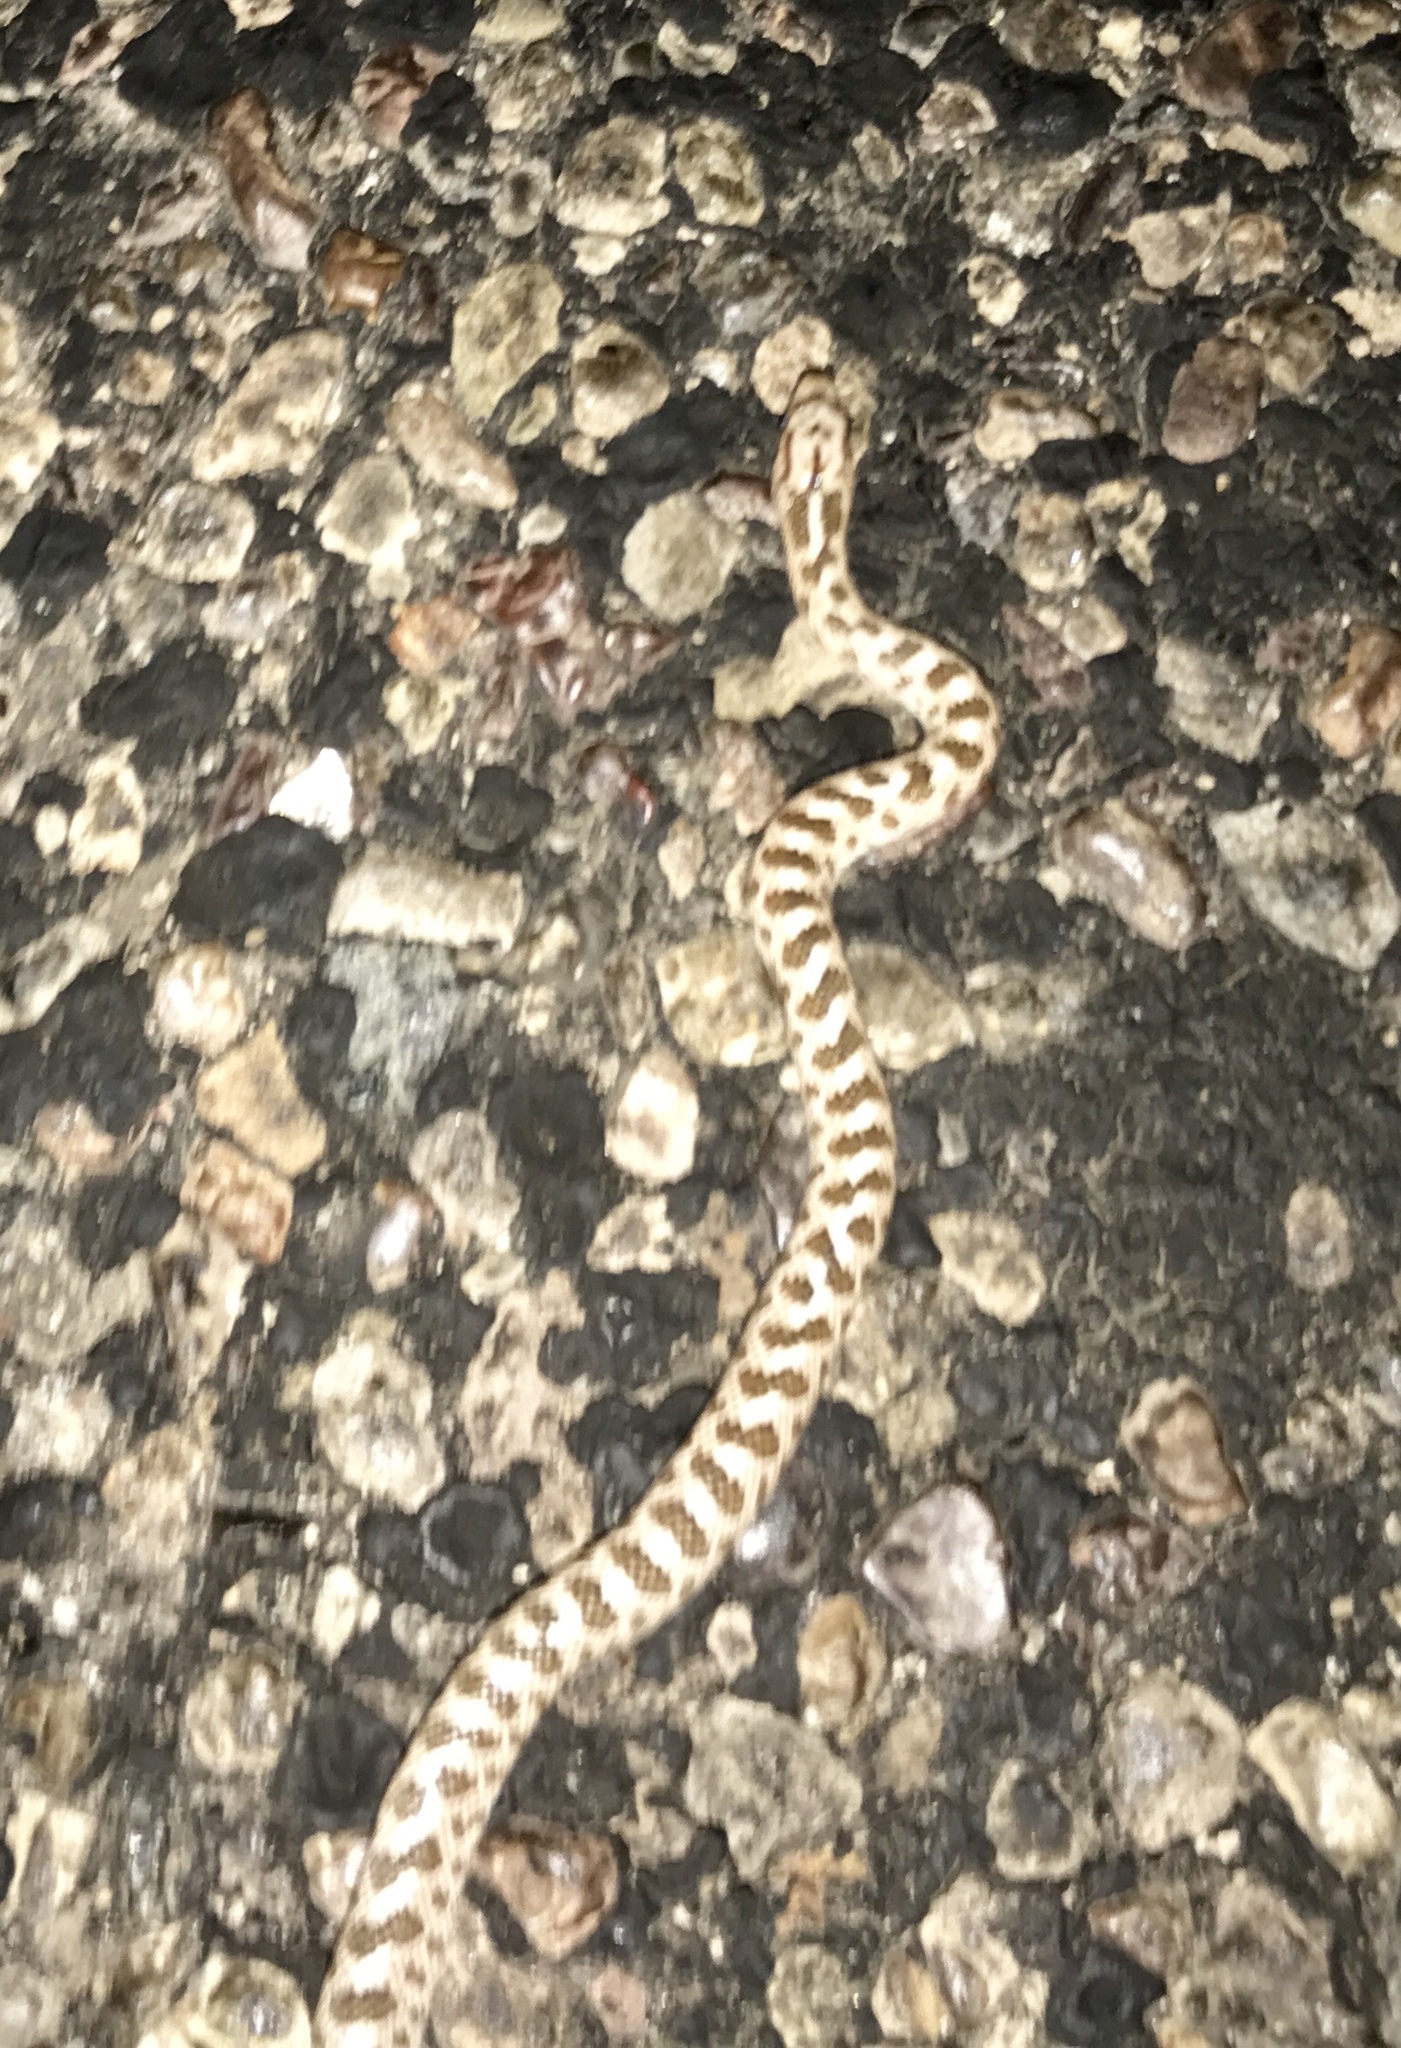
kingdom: Animalia
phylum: Chordata
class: Squamata
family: Colubridae
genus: Arizona
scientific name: Arizona elegans
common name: Glossy snake
